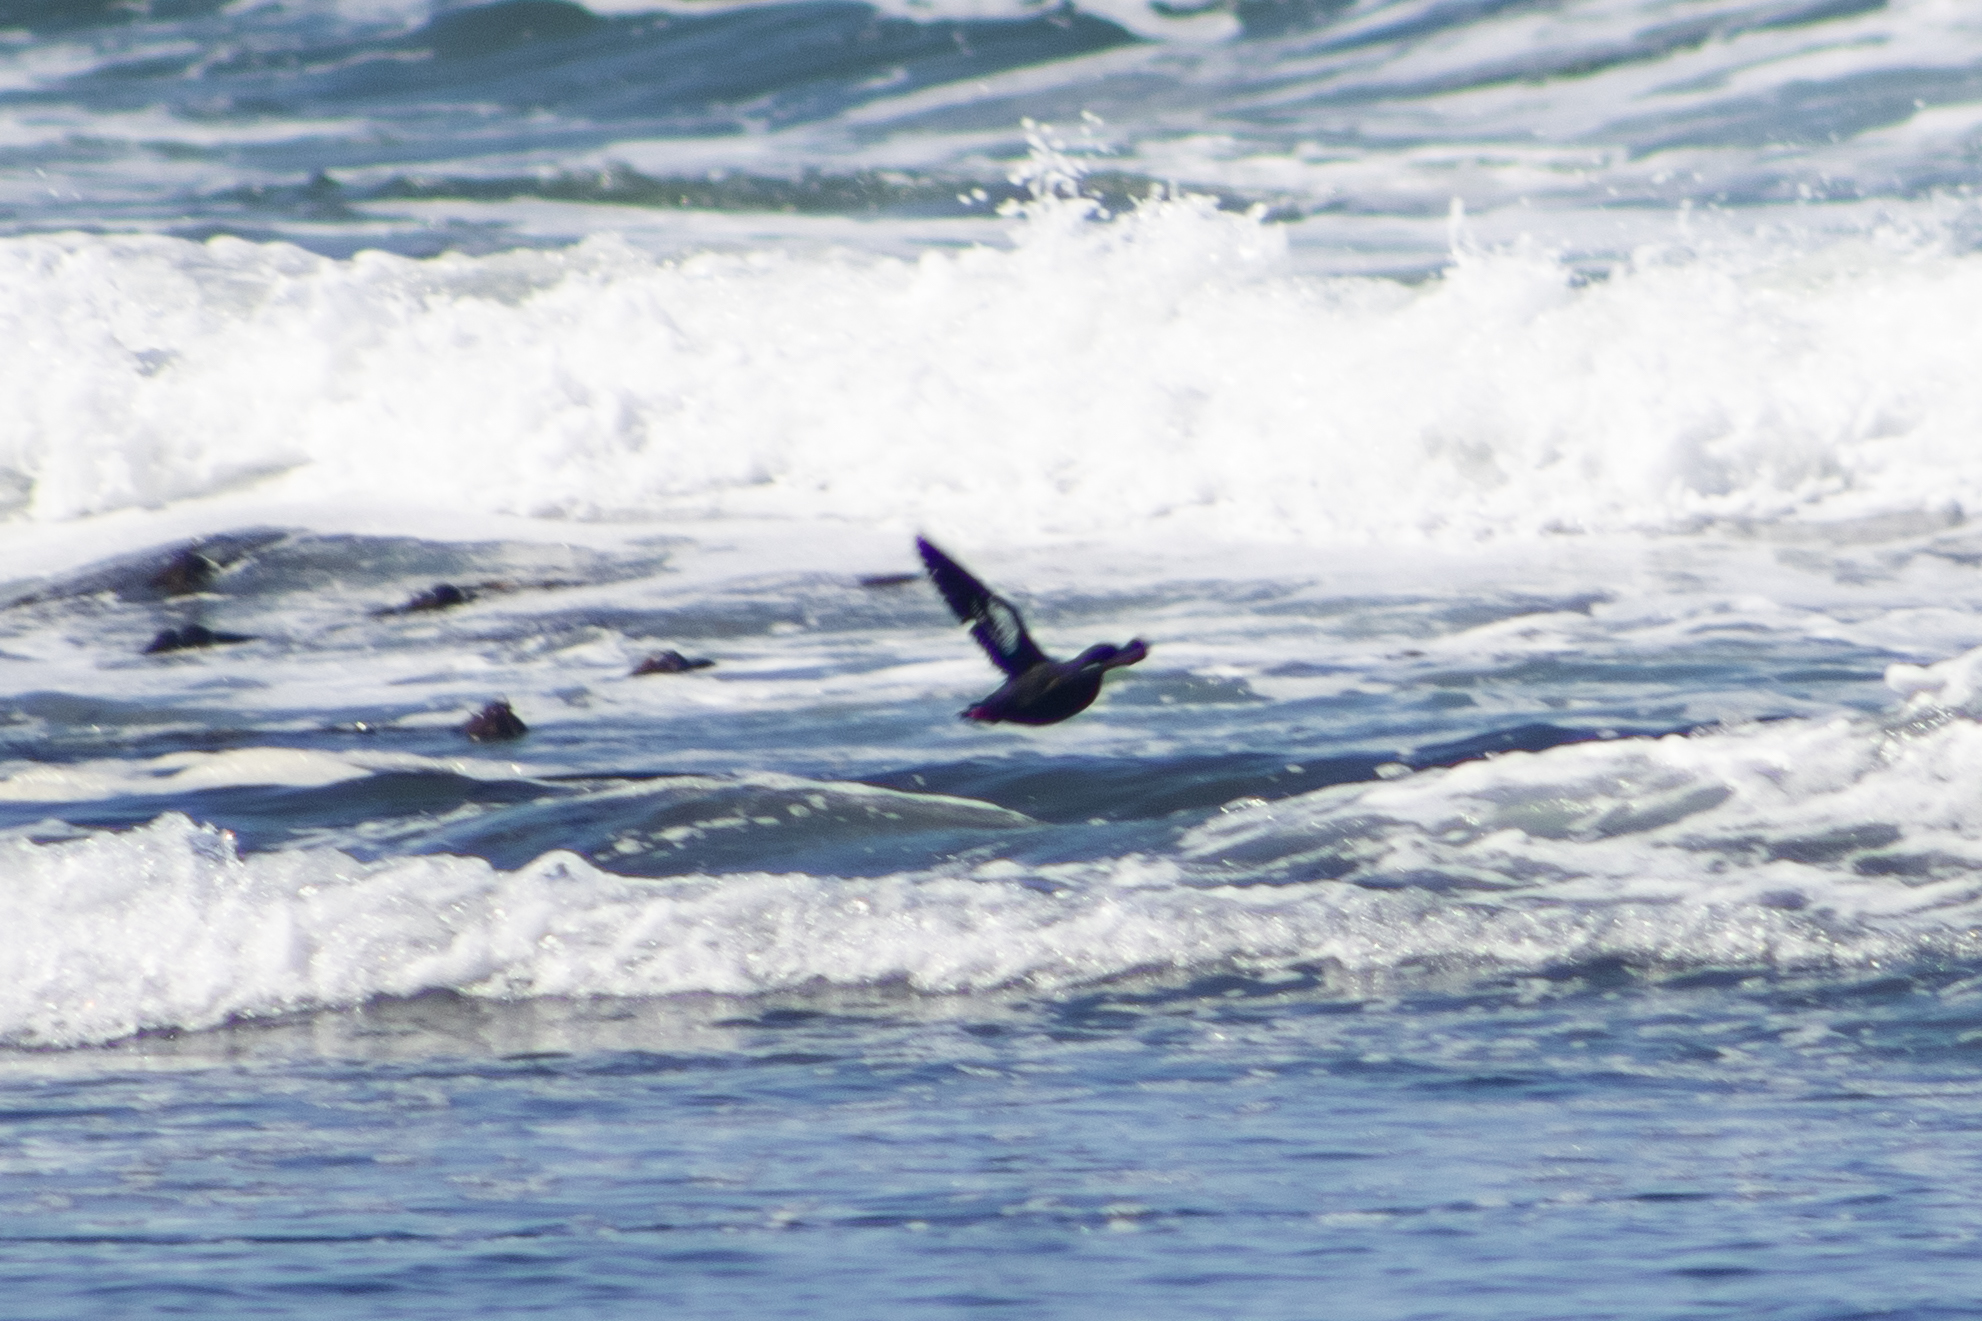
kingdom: Animalia
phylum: Chordata
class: Aves
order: Charadriiformes
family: Alcidae
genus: Cepphus
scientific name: Cepphus columba
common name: Pigeon guillemot
